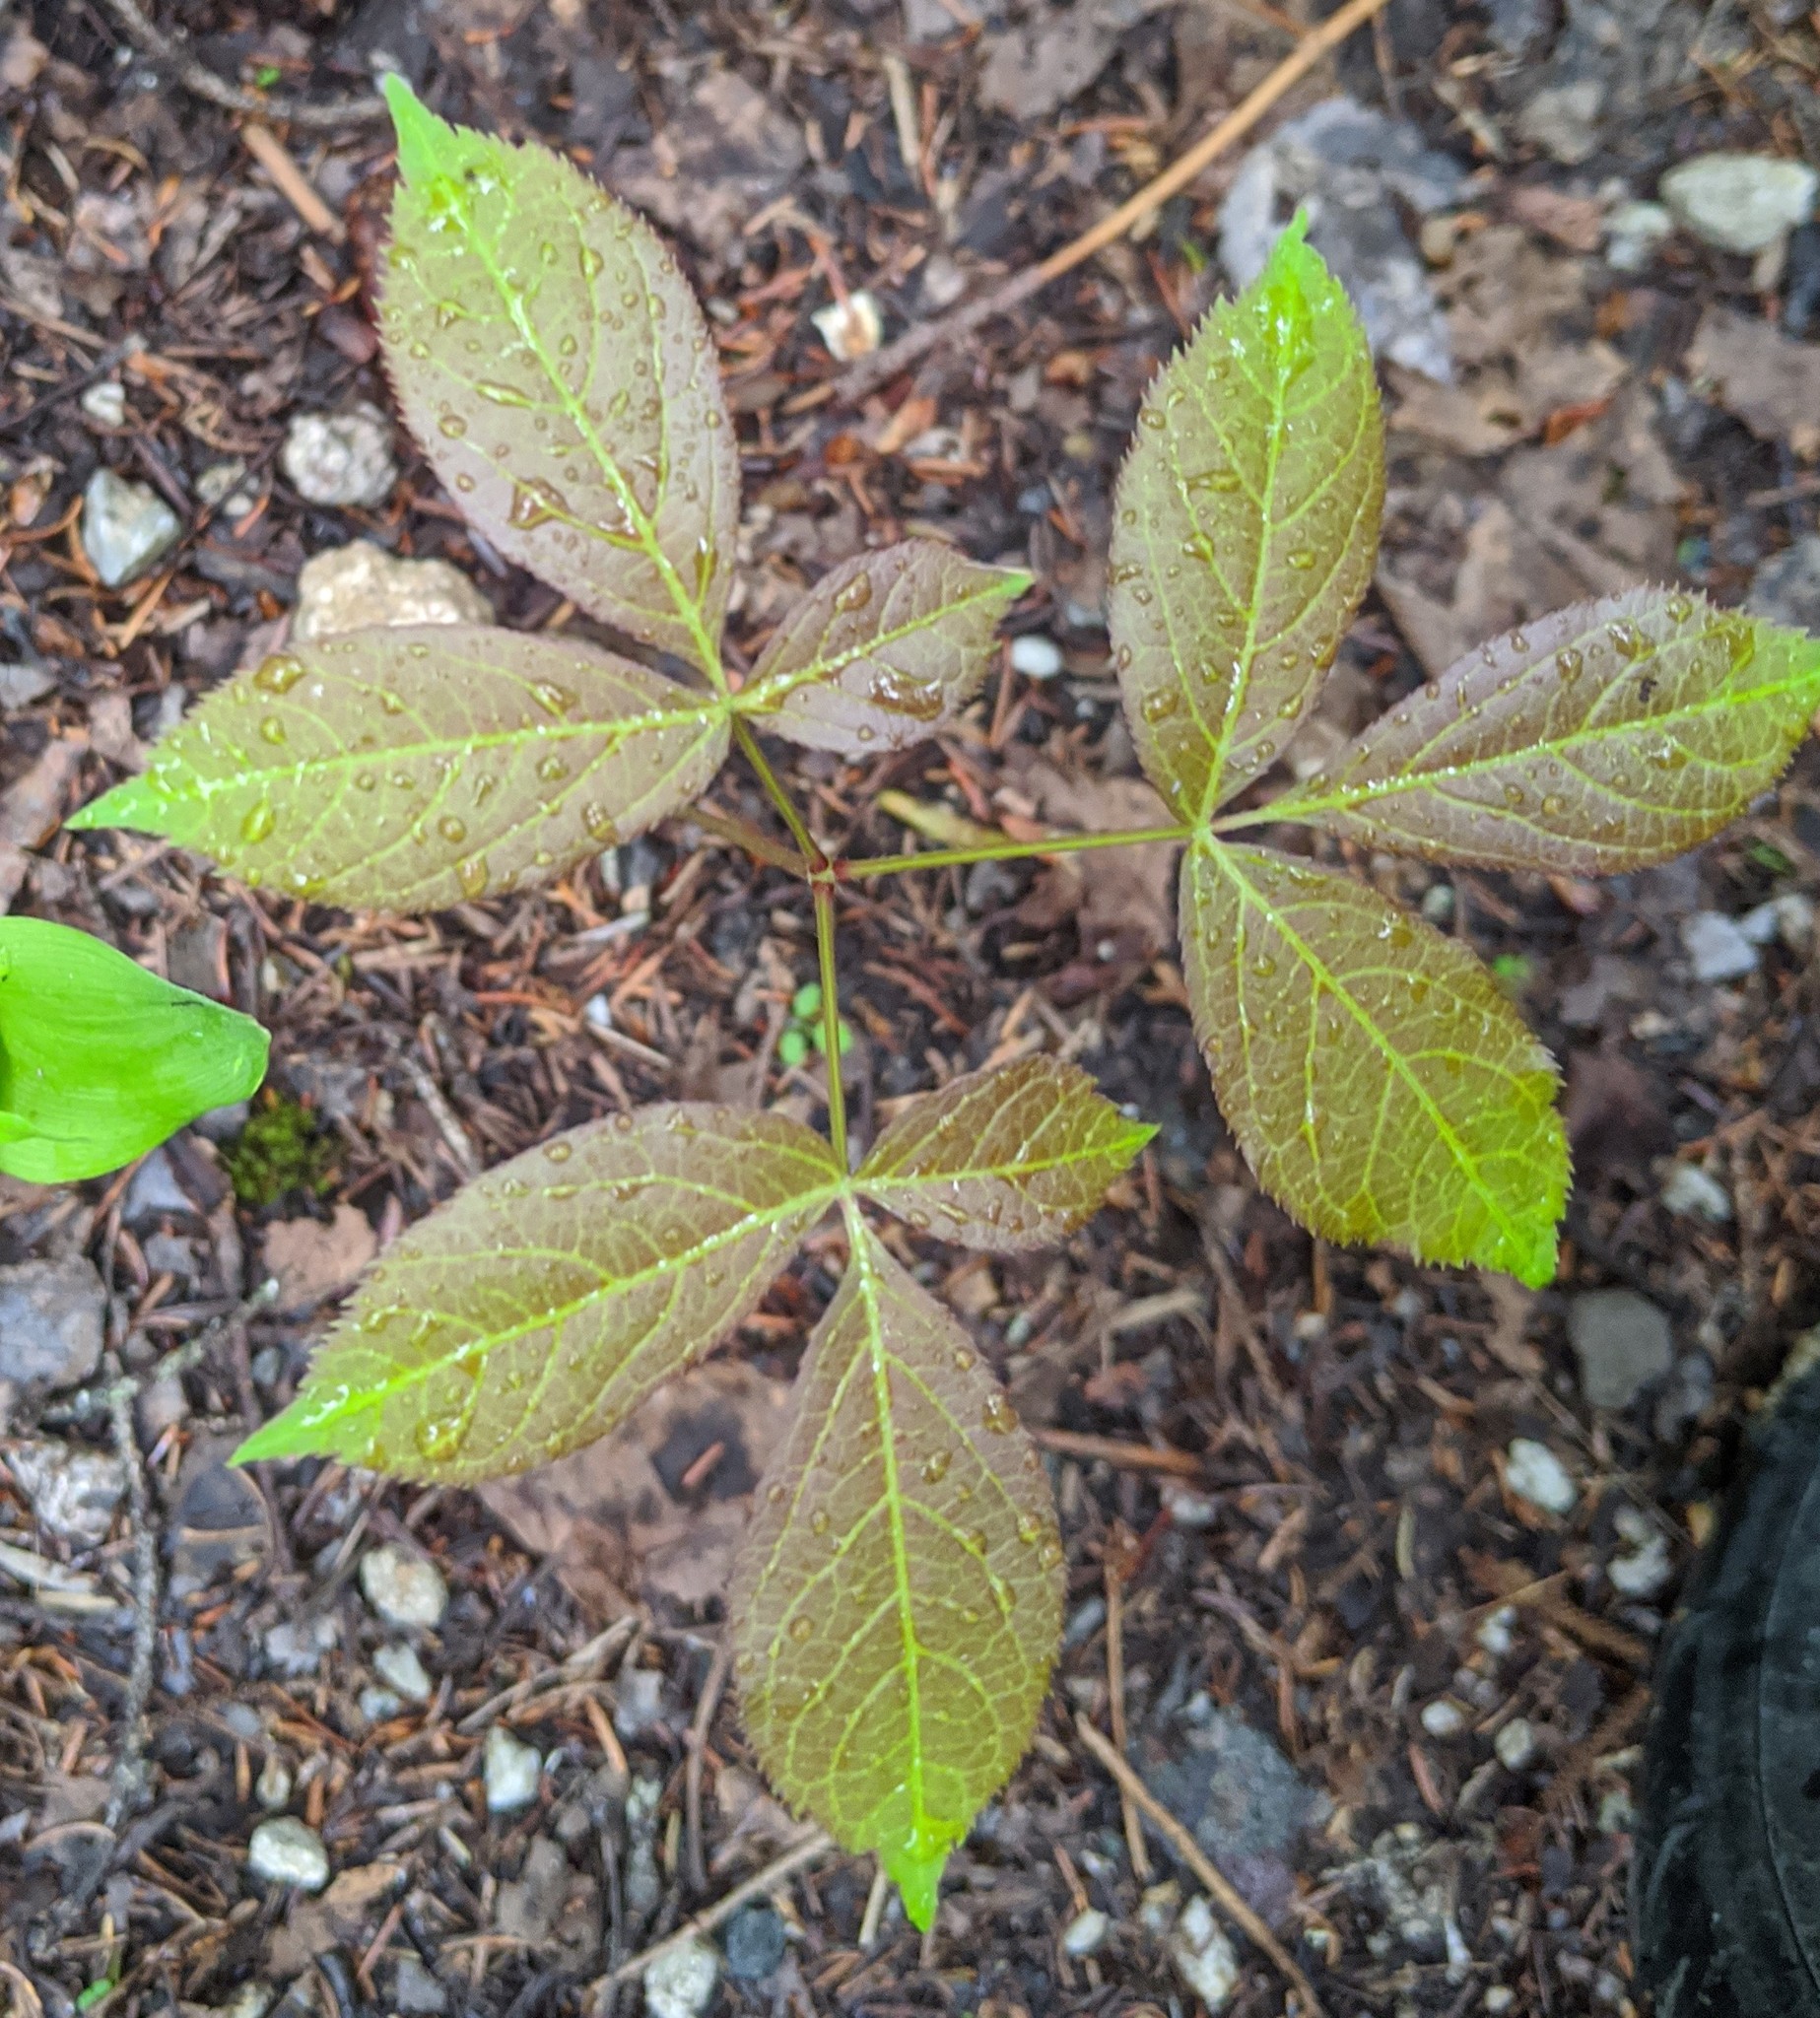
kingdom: Plantae
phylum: Tracheophyta
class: Magnoliopsida
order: Apiales
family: Araliaceae
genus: Aralia
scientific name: Aralia nudicaulis
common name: Wild sarsaparilla
